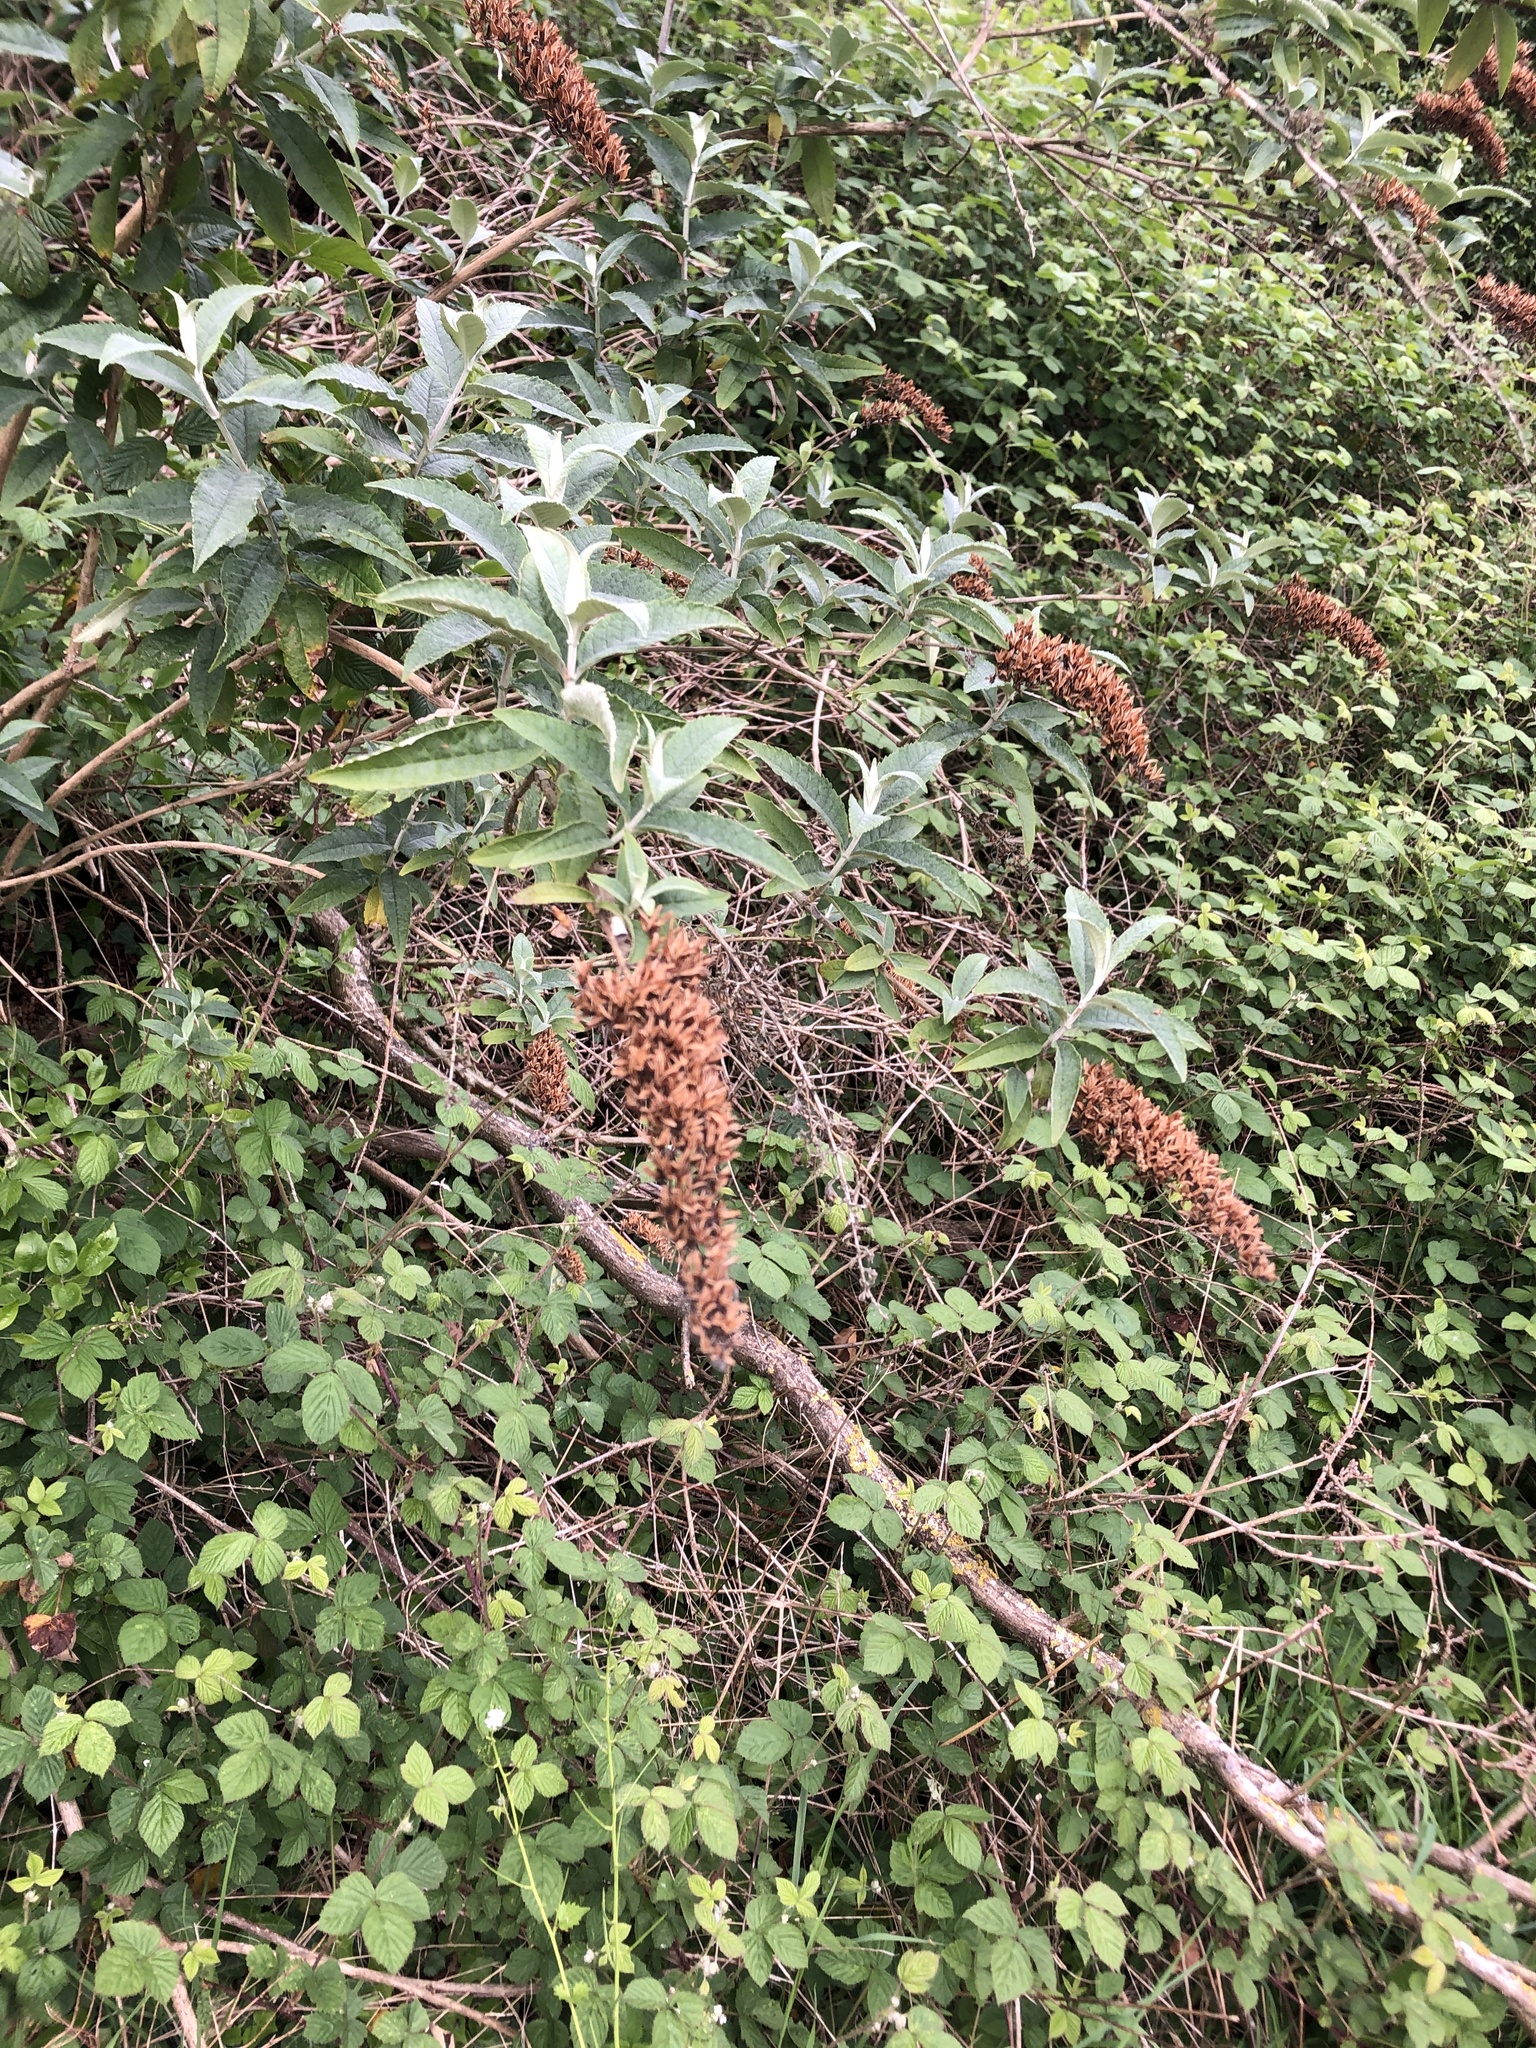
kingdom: Plantae
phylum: Tracheophyta
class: Magnoliopsida
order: Lamiales
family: Scrophulariaceae
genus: Buddleja
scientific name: Buddleja davidii
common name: Butterfly-bush
